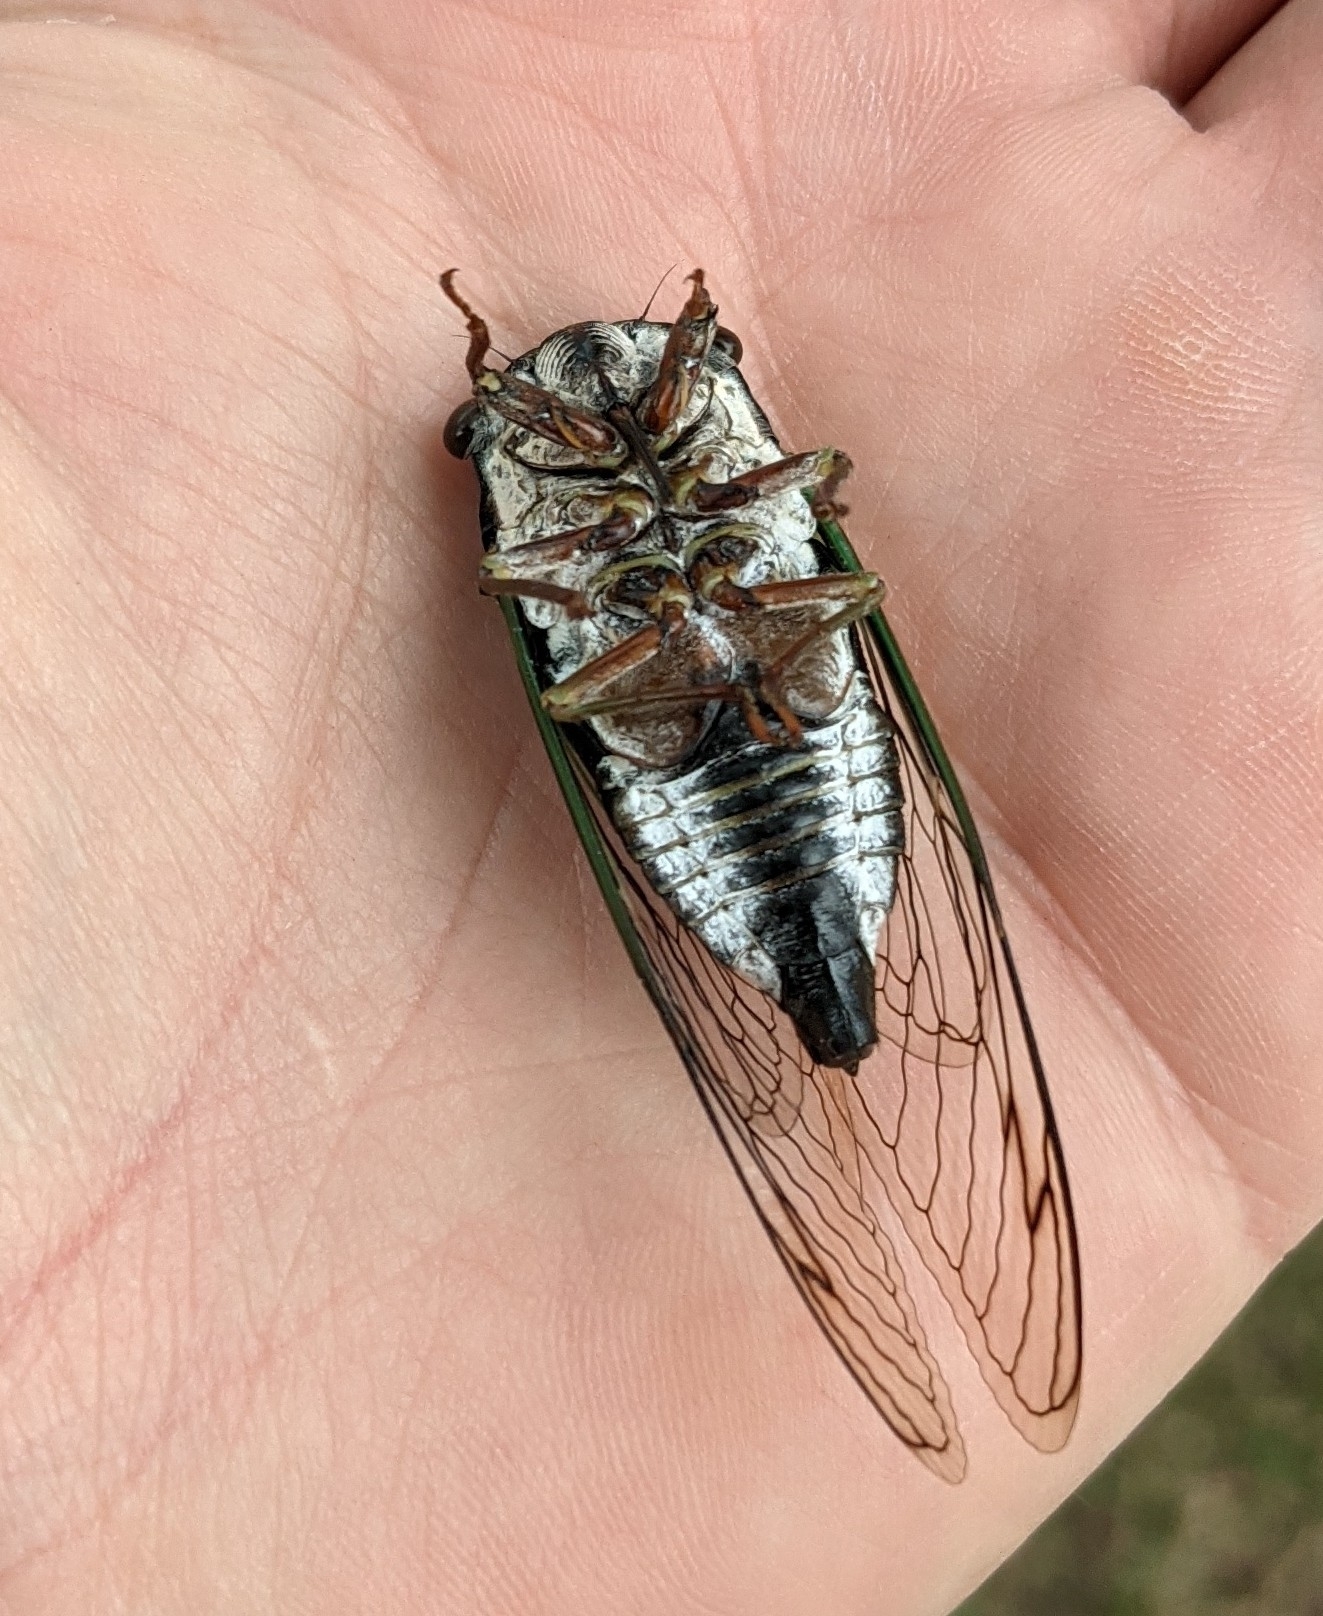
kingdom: Animalia
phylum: Arthropoda
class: Insecta
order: Hemiptera
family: Cicadidae
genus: Neotibicen
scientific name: Neotibicen lyricen
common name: Lyric cicada
